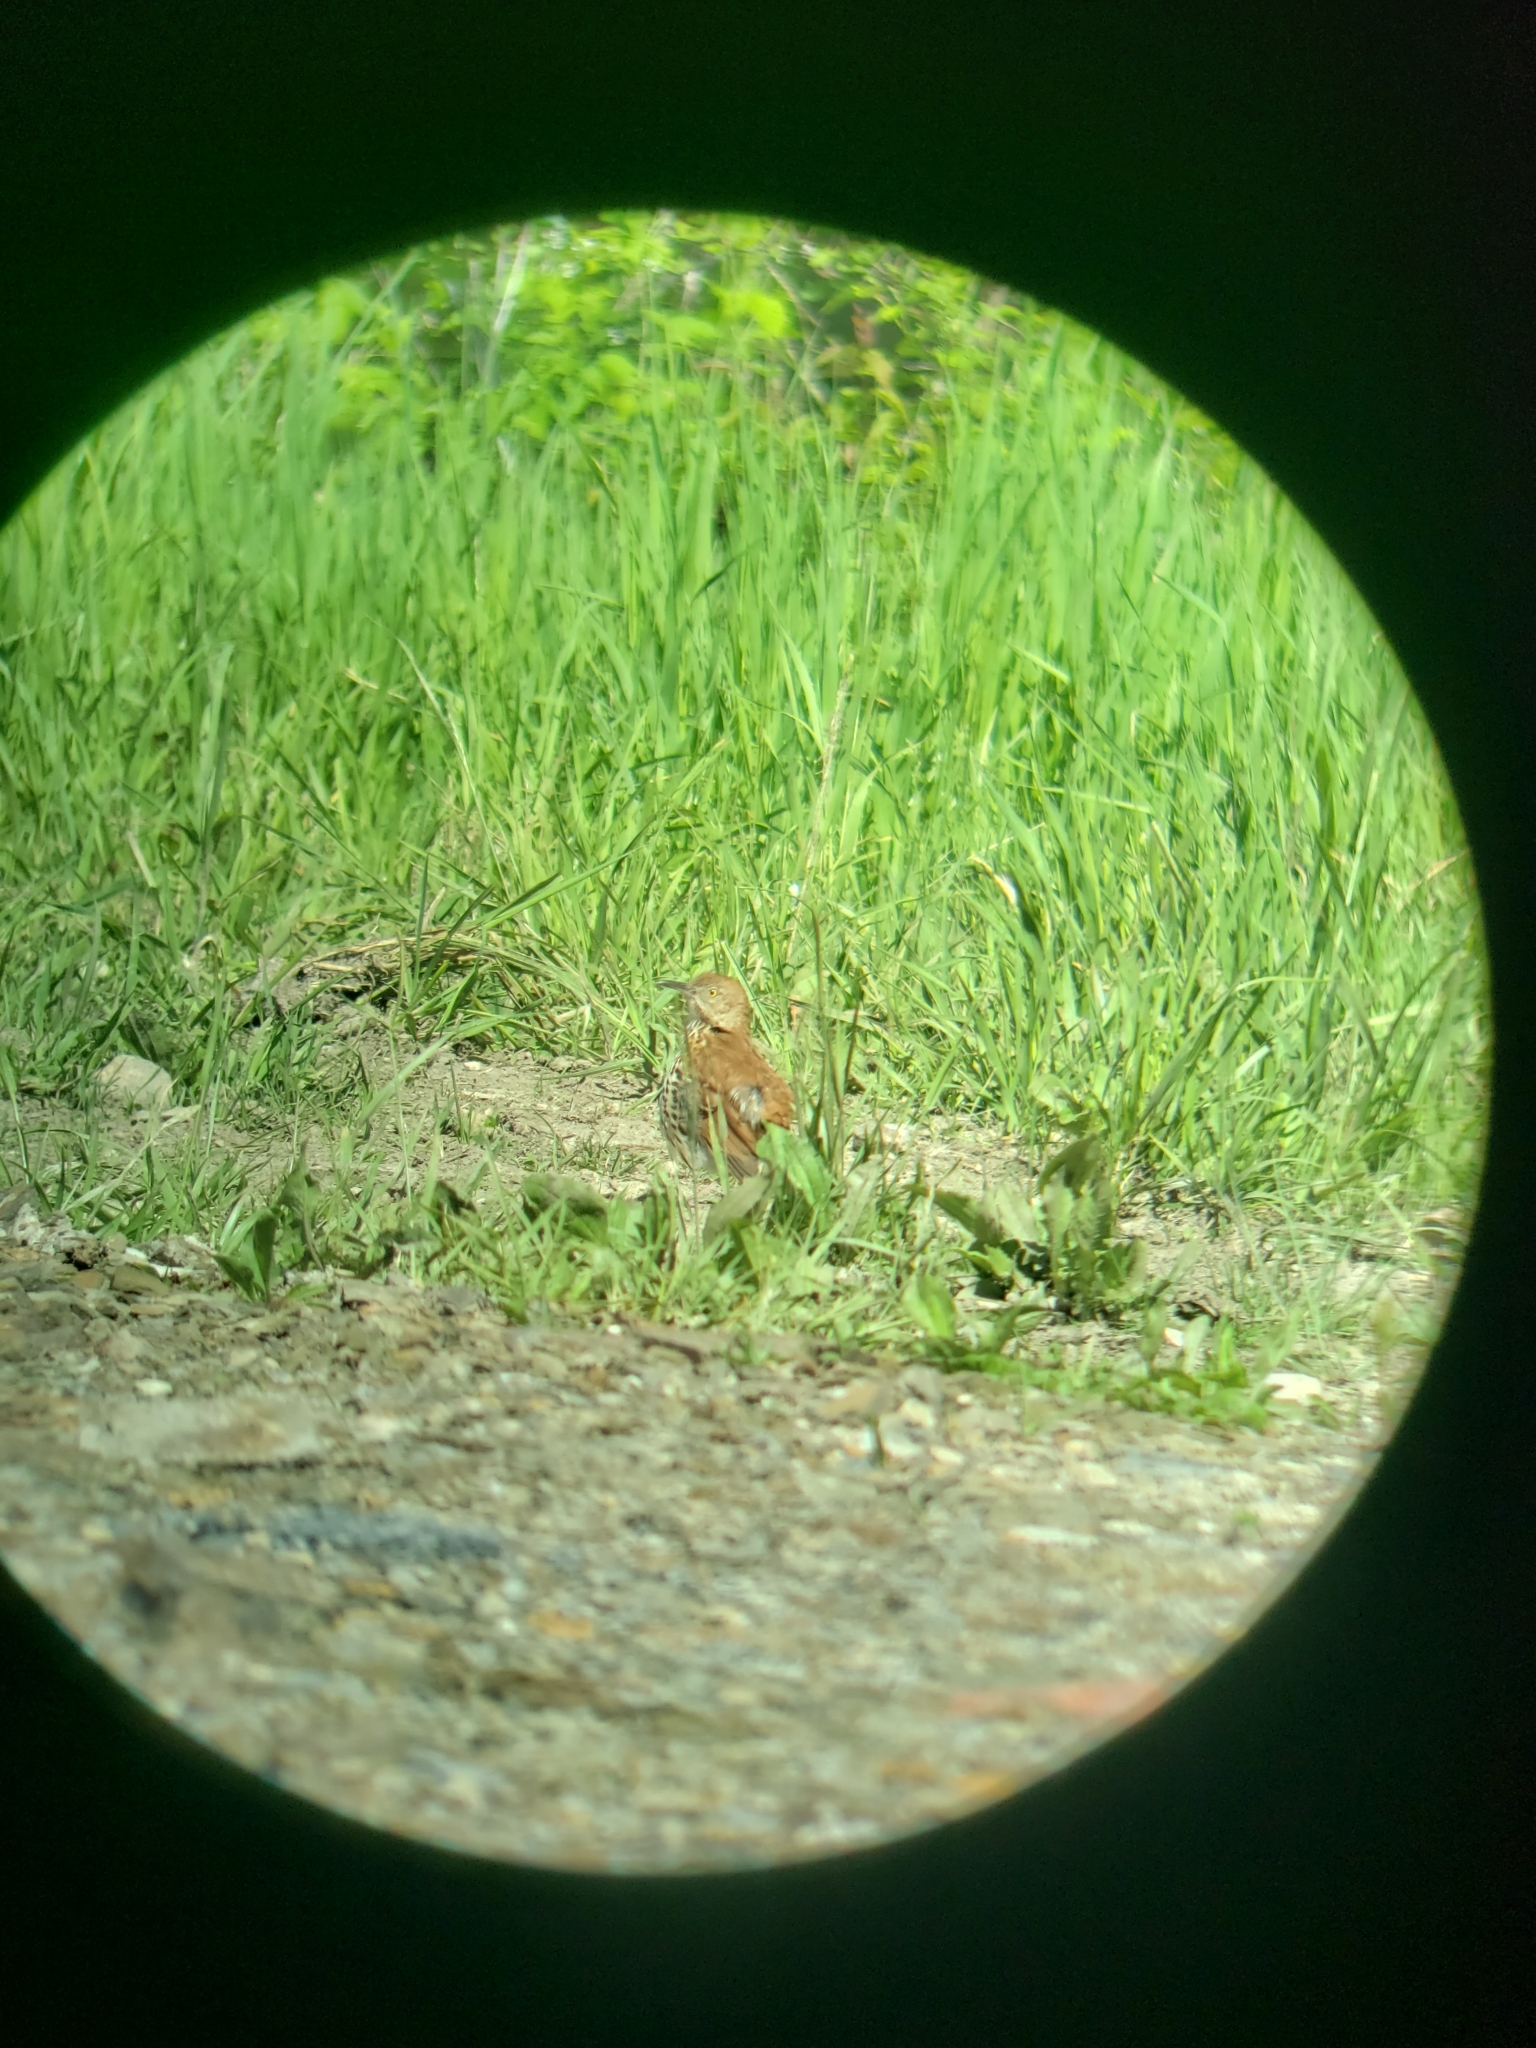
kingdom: Animalia
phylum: Chordata
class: Aves
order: Passeriformes
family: Mimidae
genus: Toxostoma
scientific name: Toxostoma rufum
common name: Brown thrasher
